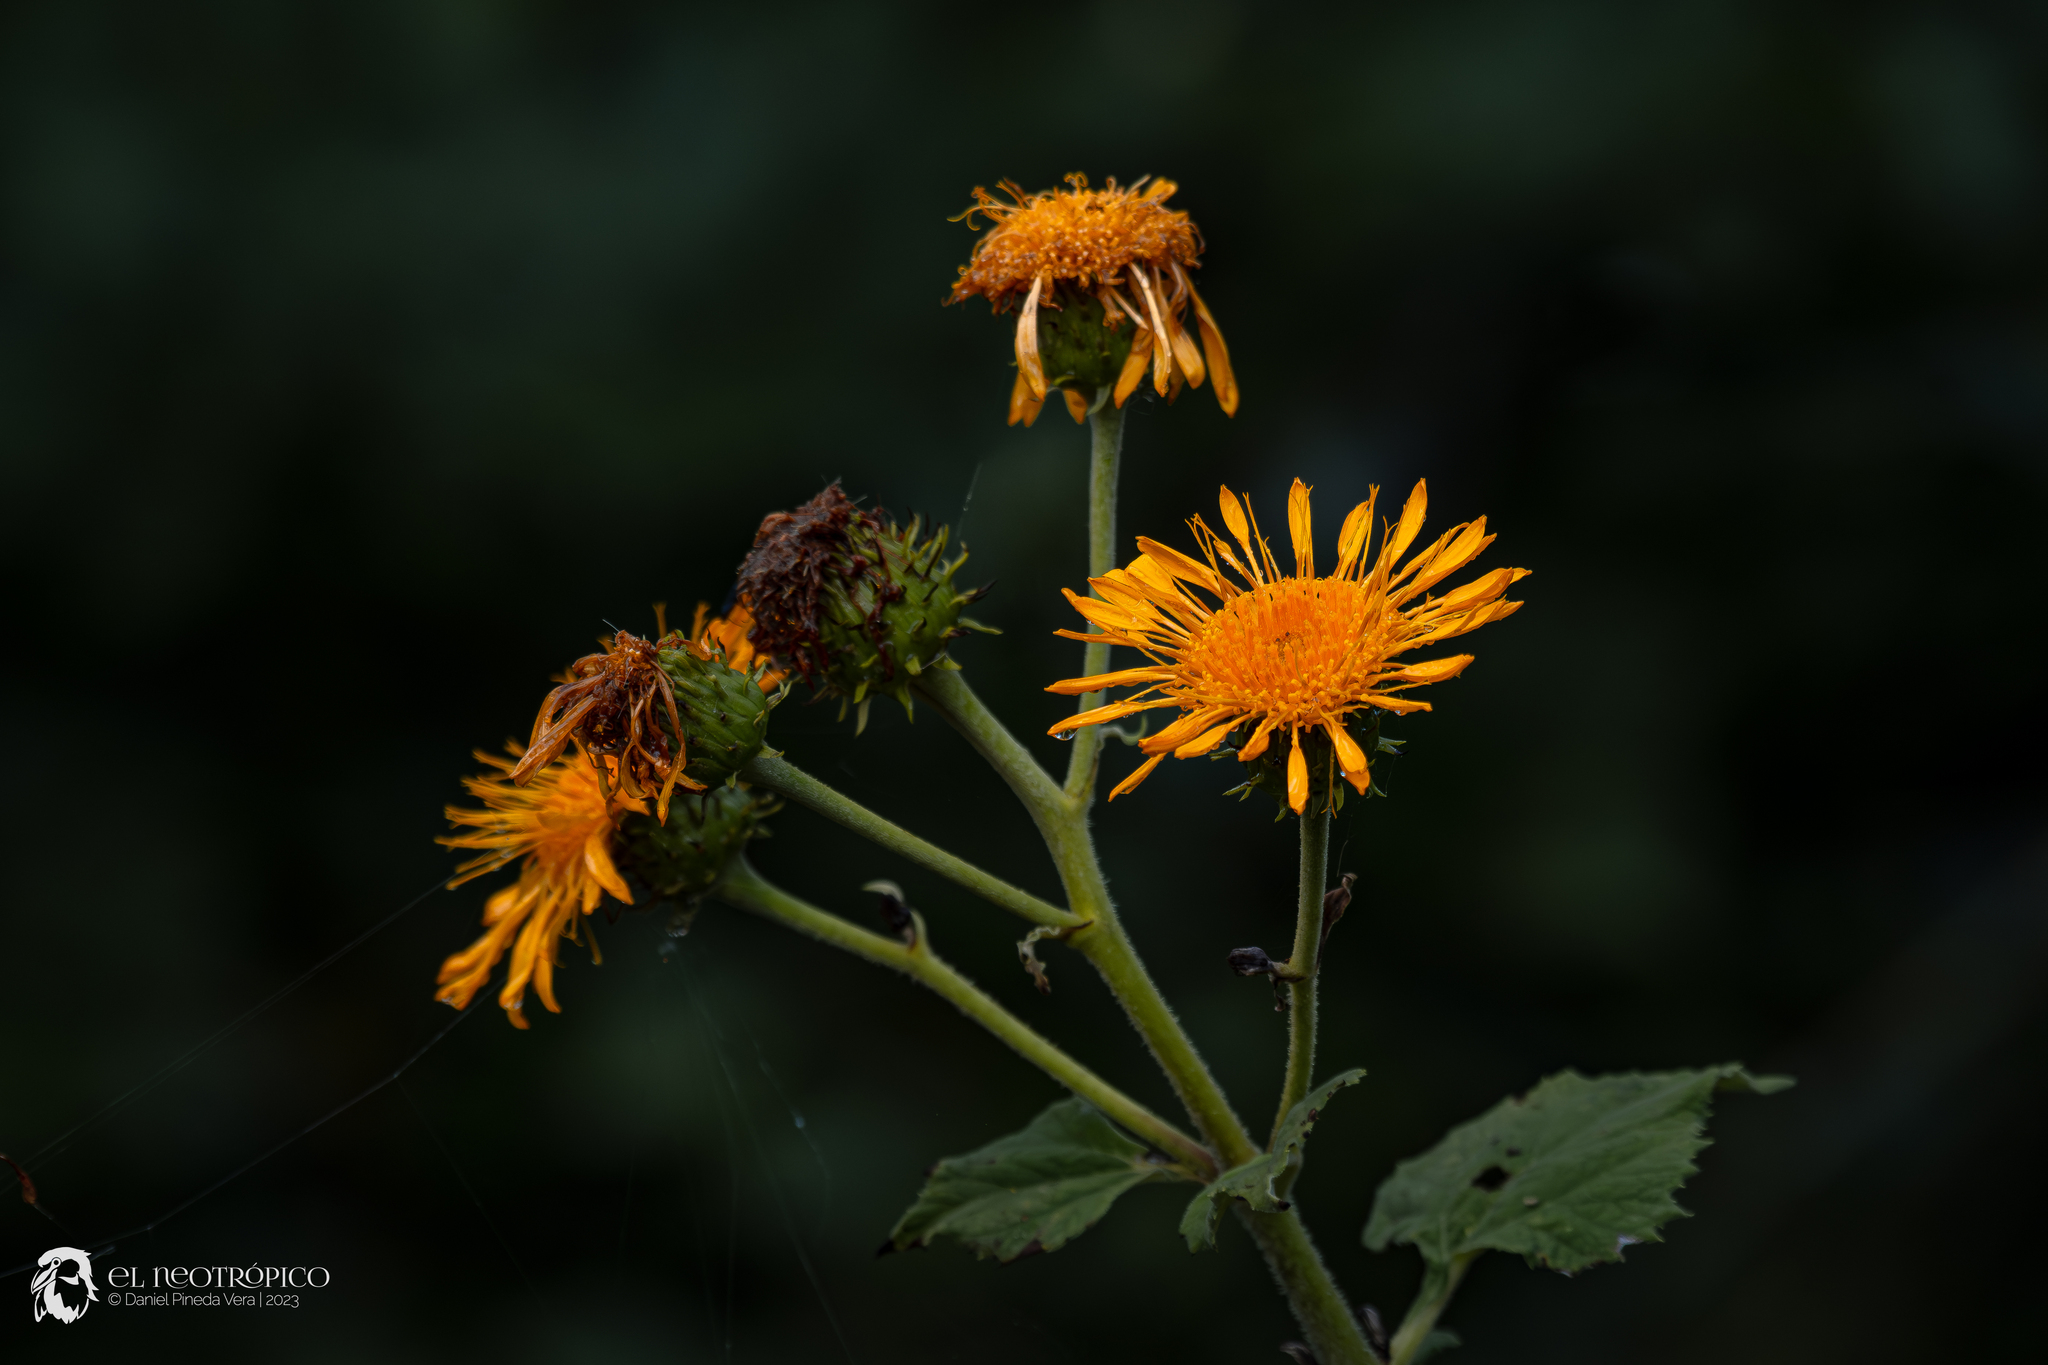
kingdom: Plantae
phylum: Tracheophyta
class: Magnoliopsida
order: Asterales
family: Asteraceae
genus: Sinclairia
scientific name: Sinclairia andrieuxii
